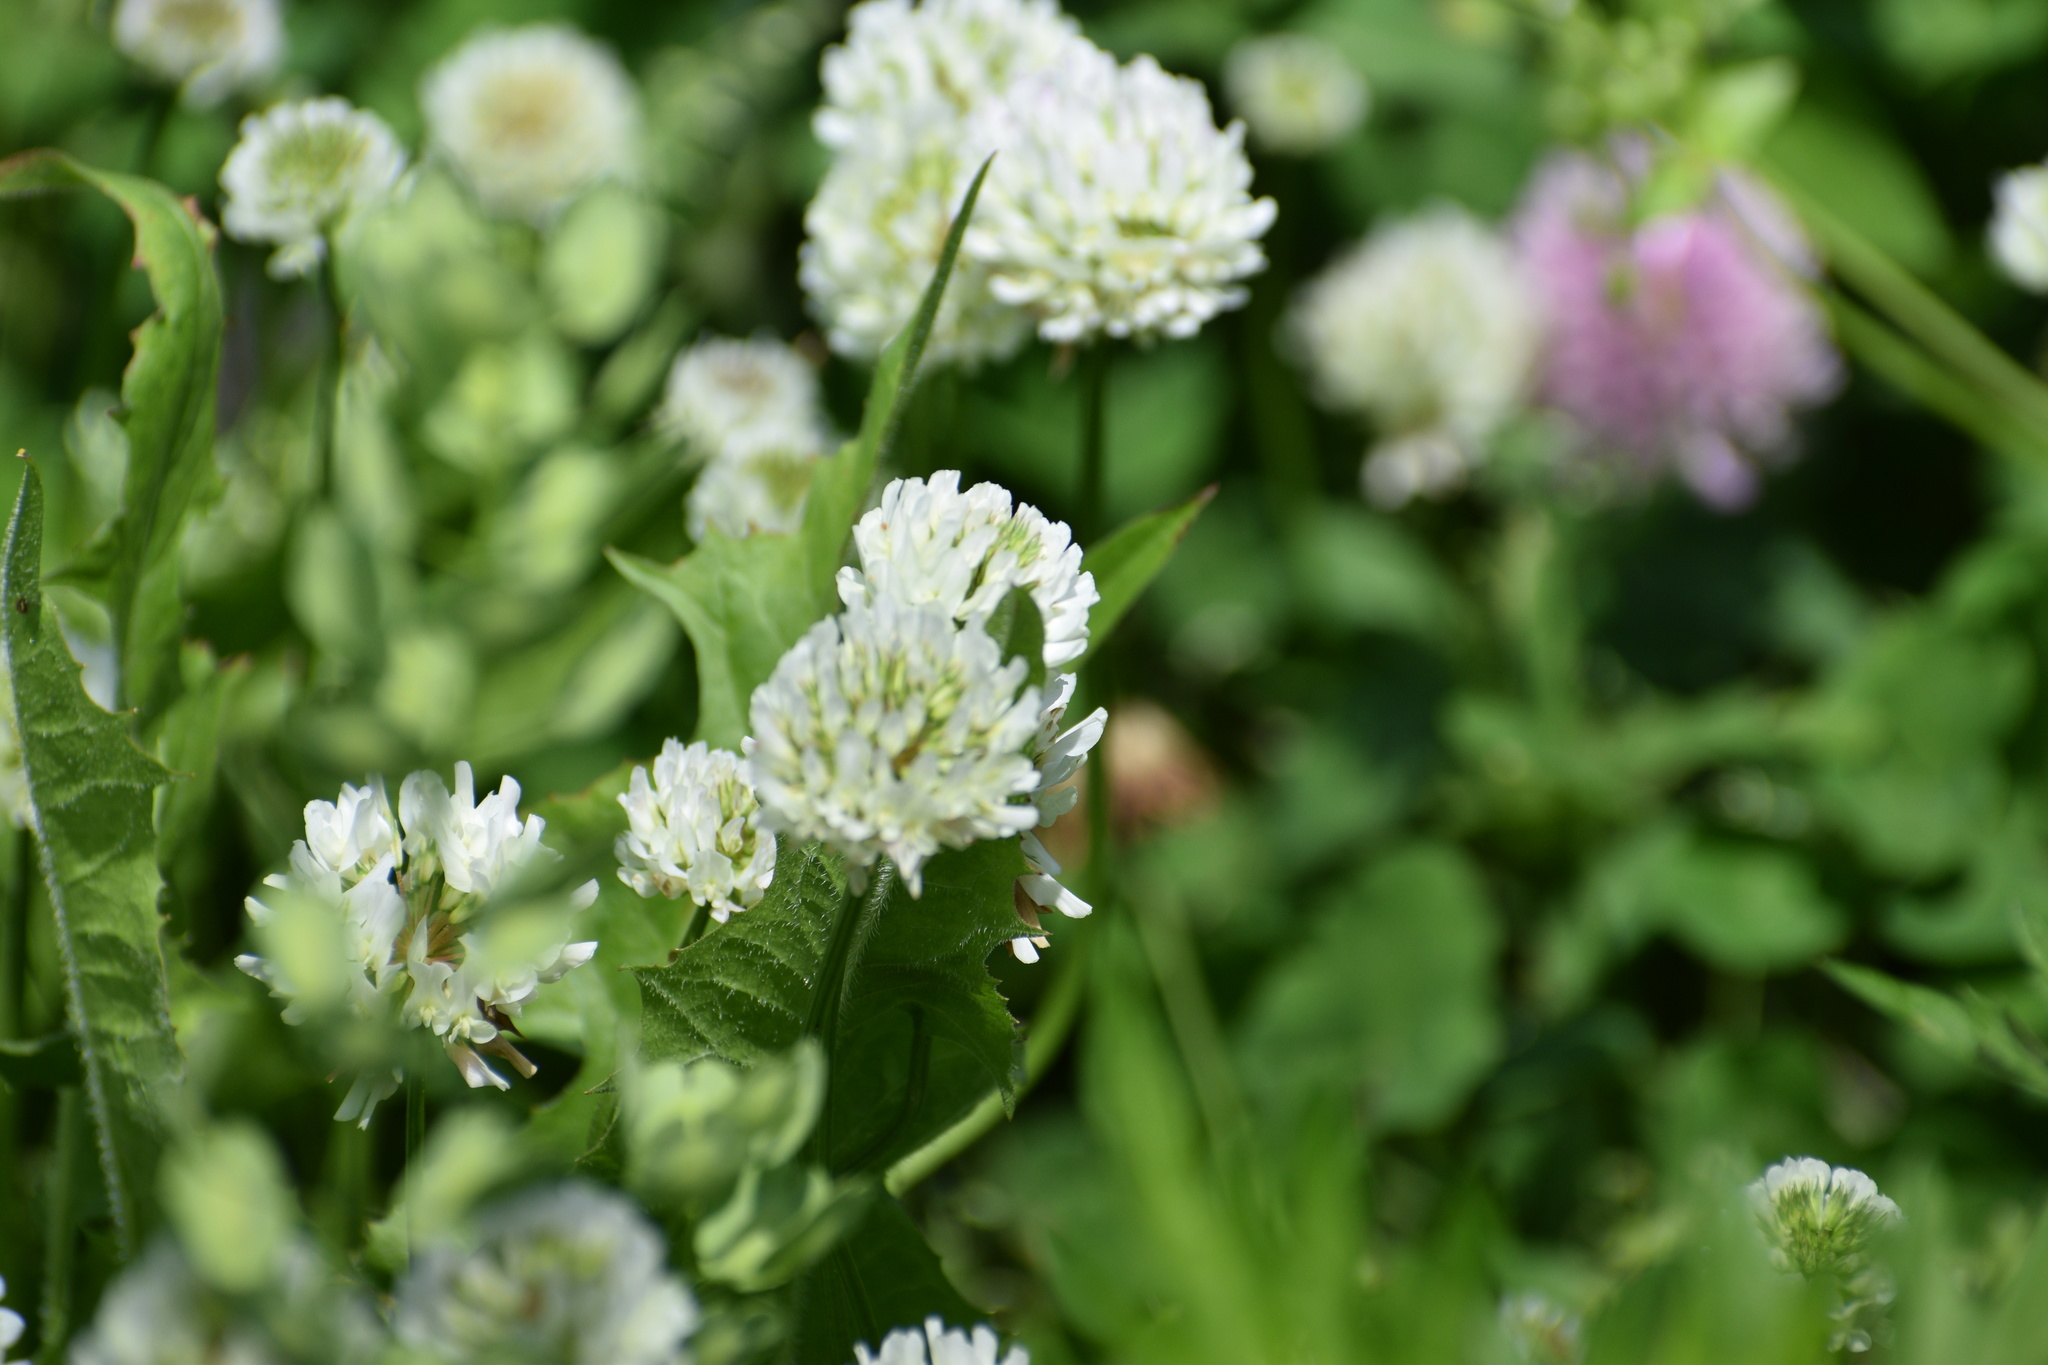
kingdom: Plantae
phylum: Tracheophyta
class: Magnoliopsida
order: Fabales
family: Fabaceae
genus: Trifolium
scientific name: Trifolium repens
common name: White clover
